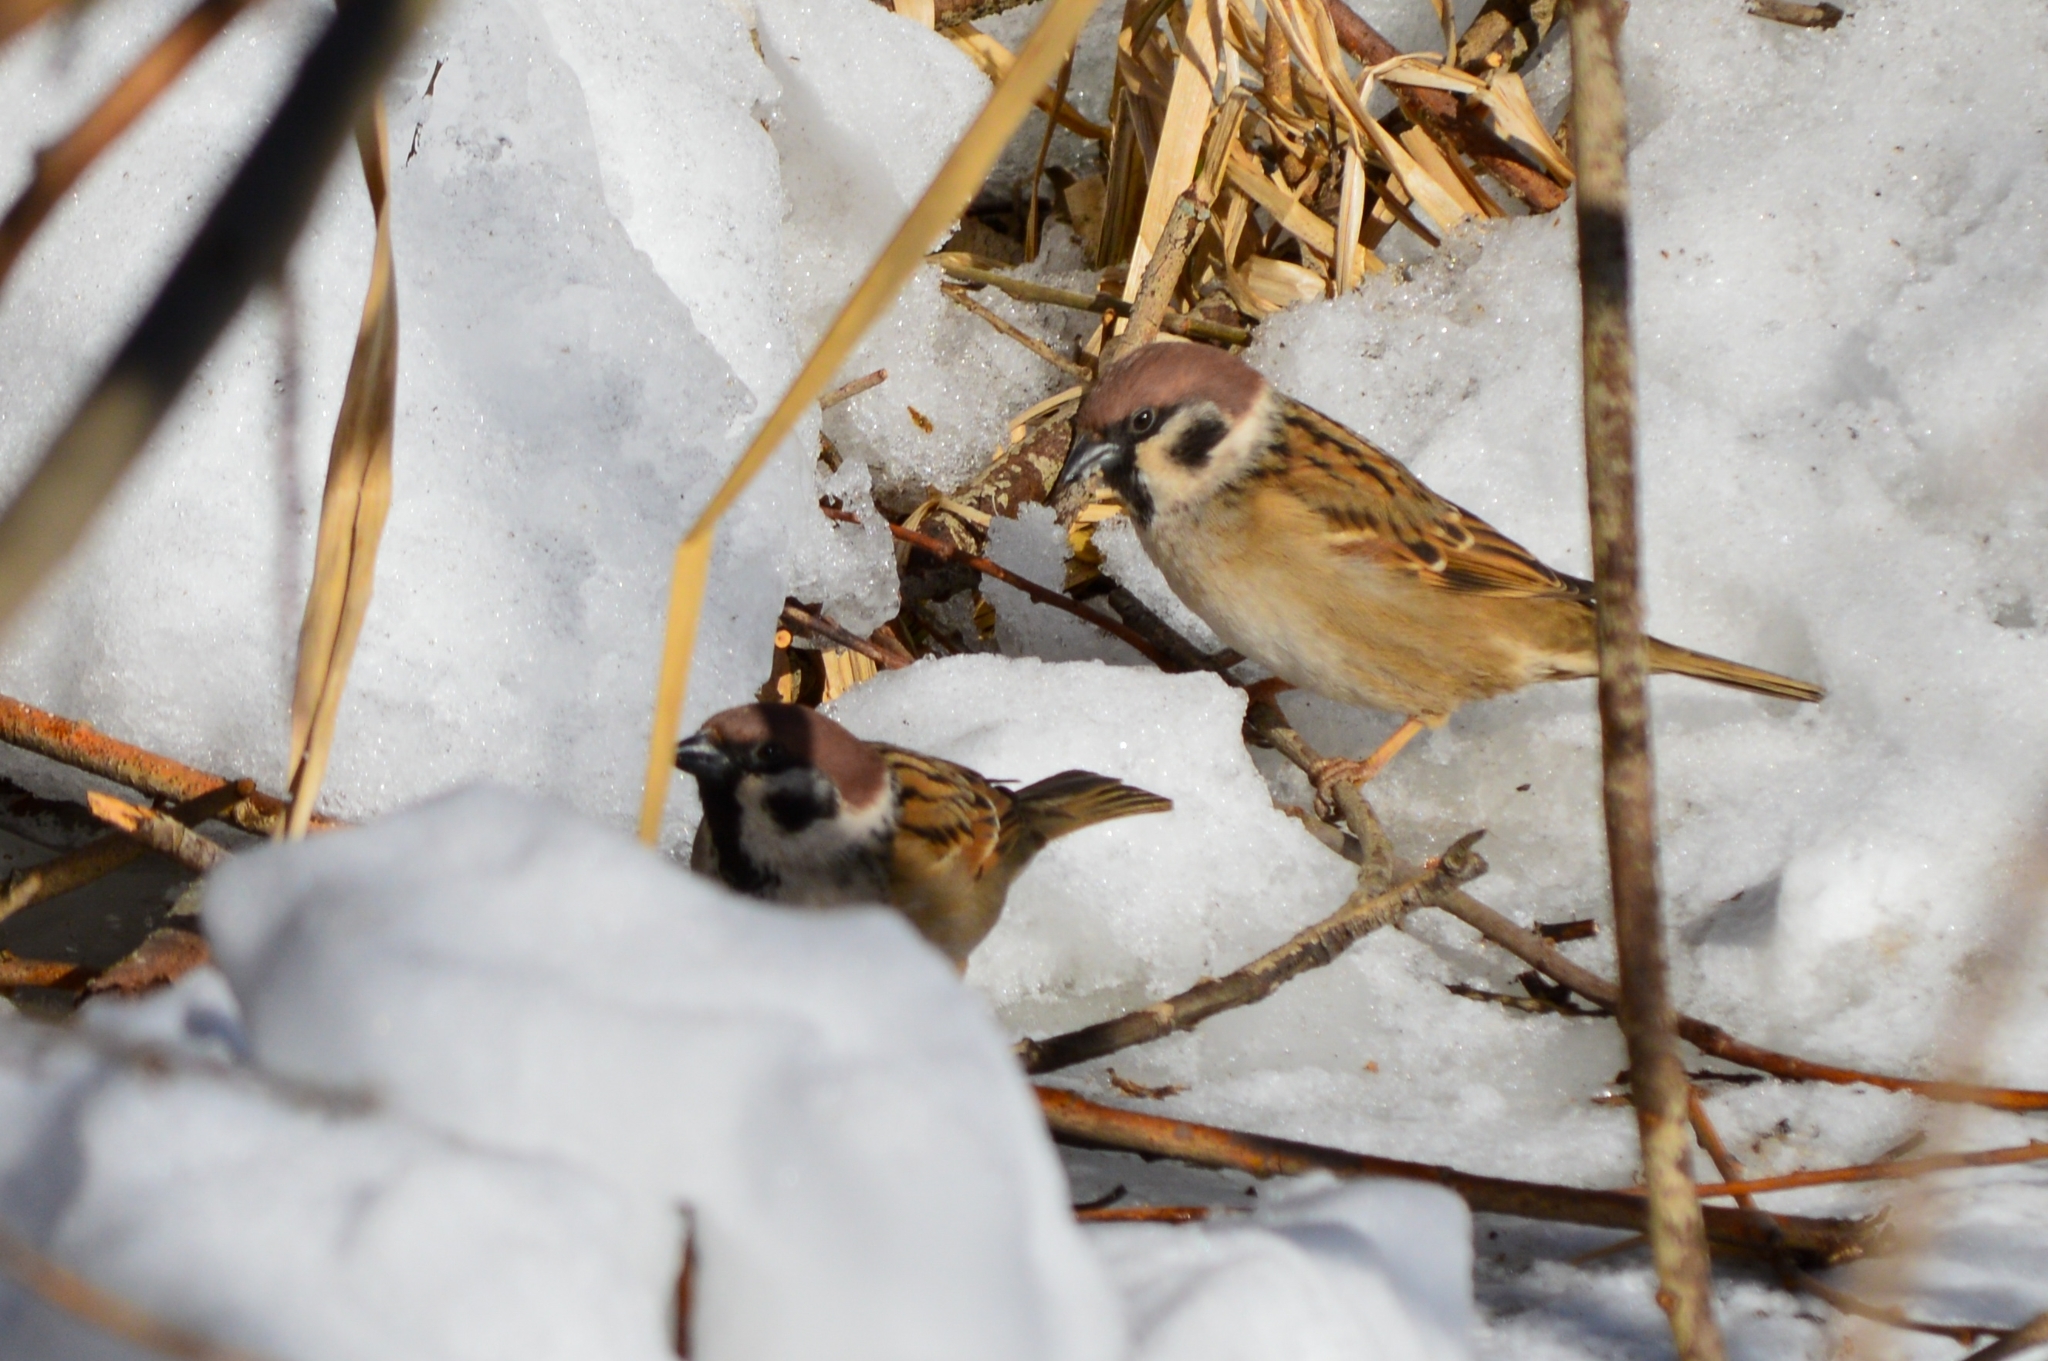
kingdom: Animalia
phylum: Chordata
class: Aves
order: Passeriformes
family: Passeridae
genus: Passer
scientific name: Passer montanus
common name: Eurasian tree sparrow
